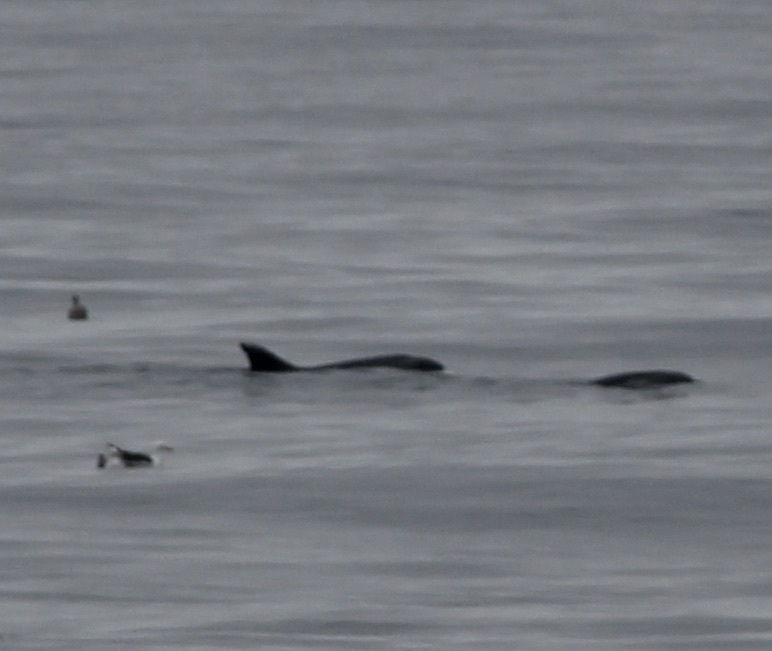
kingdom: Animalia
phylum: Chordata
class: Mammalia
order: Cetacea
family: Delphinidae
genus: Tursiops
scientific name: Tursiops truncatus
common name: Bottlenose dolphin
